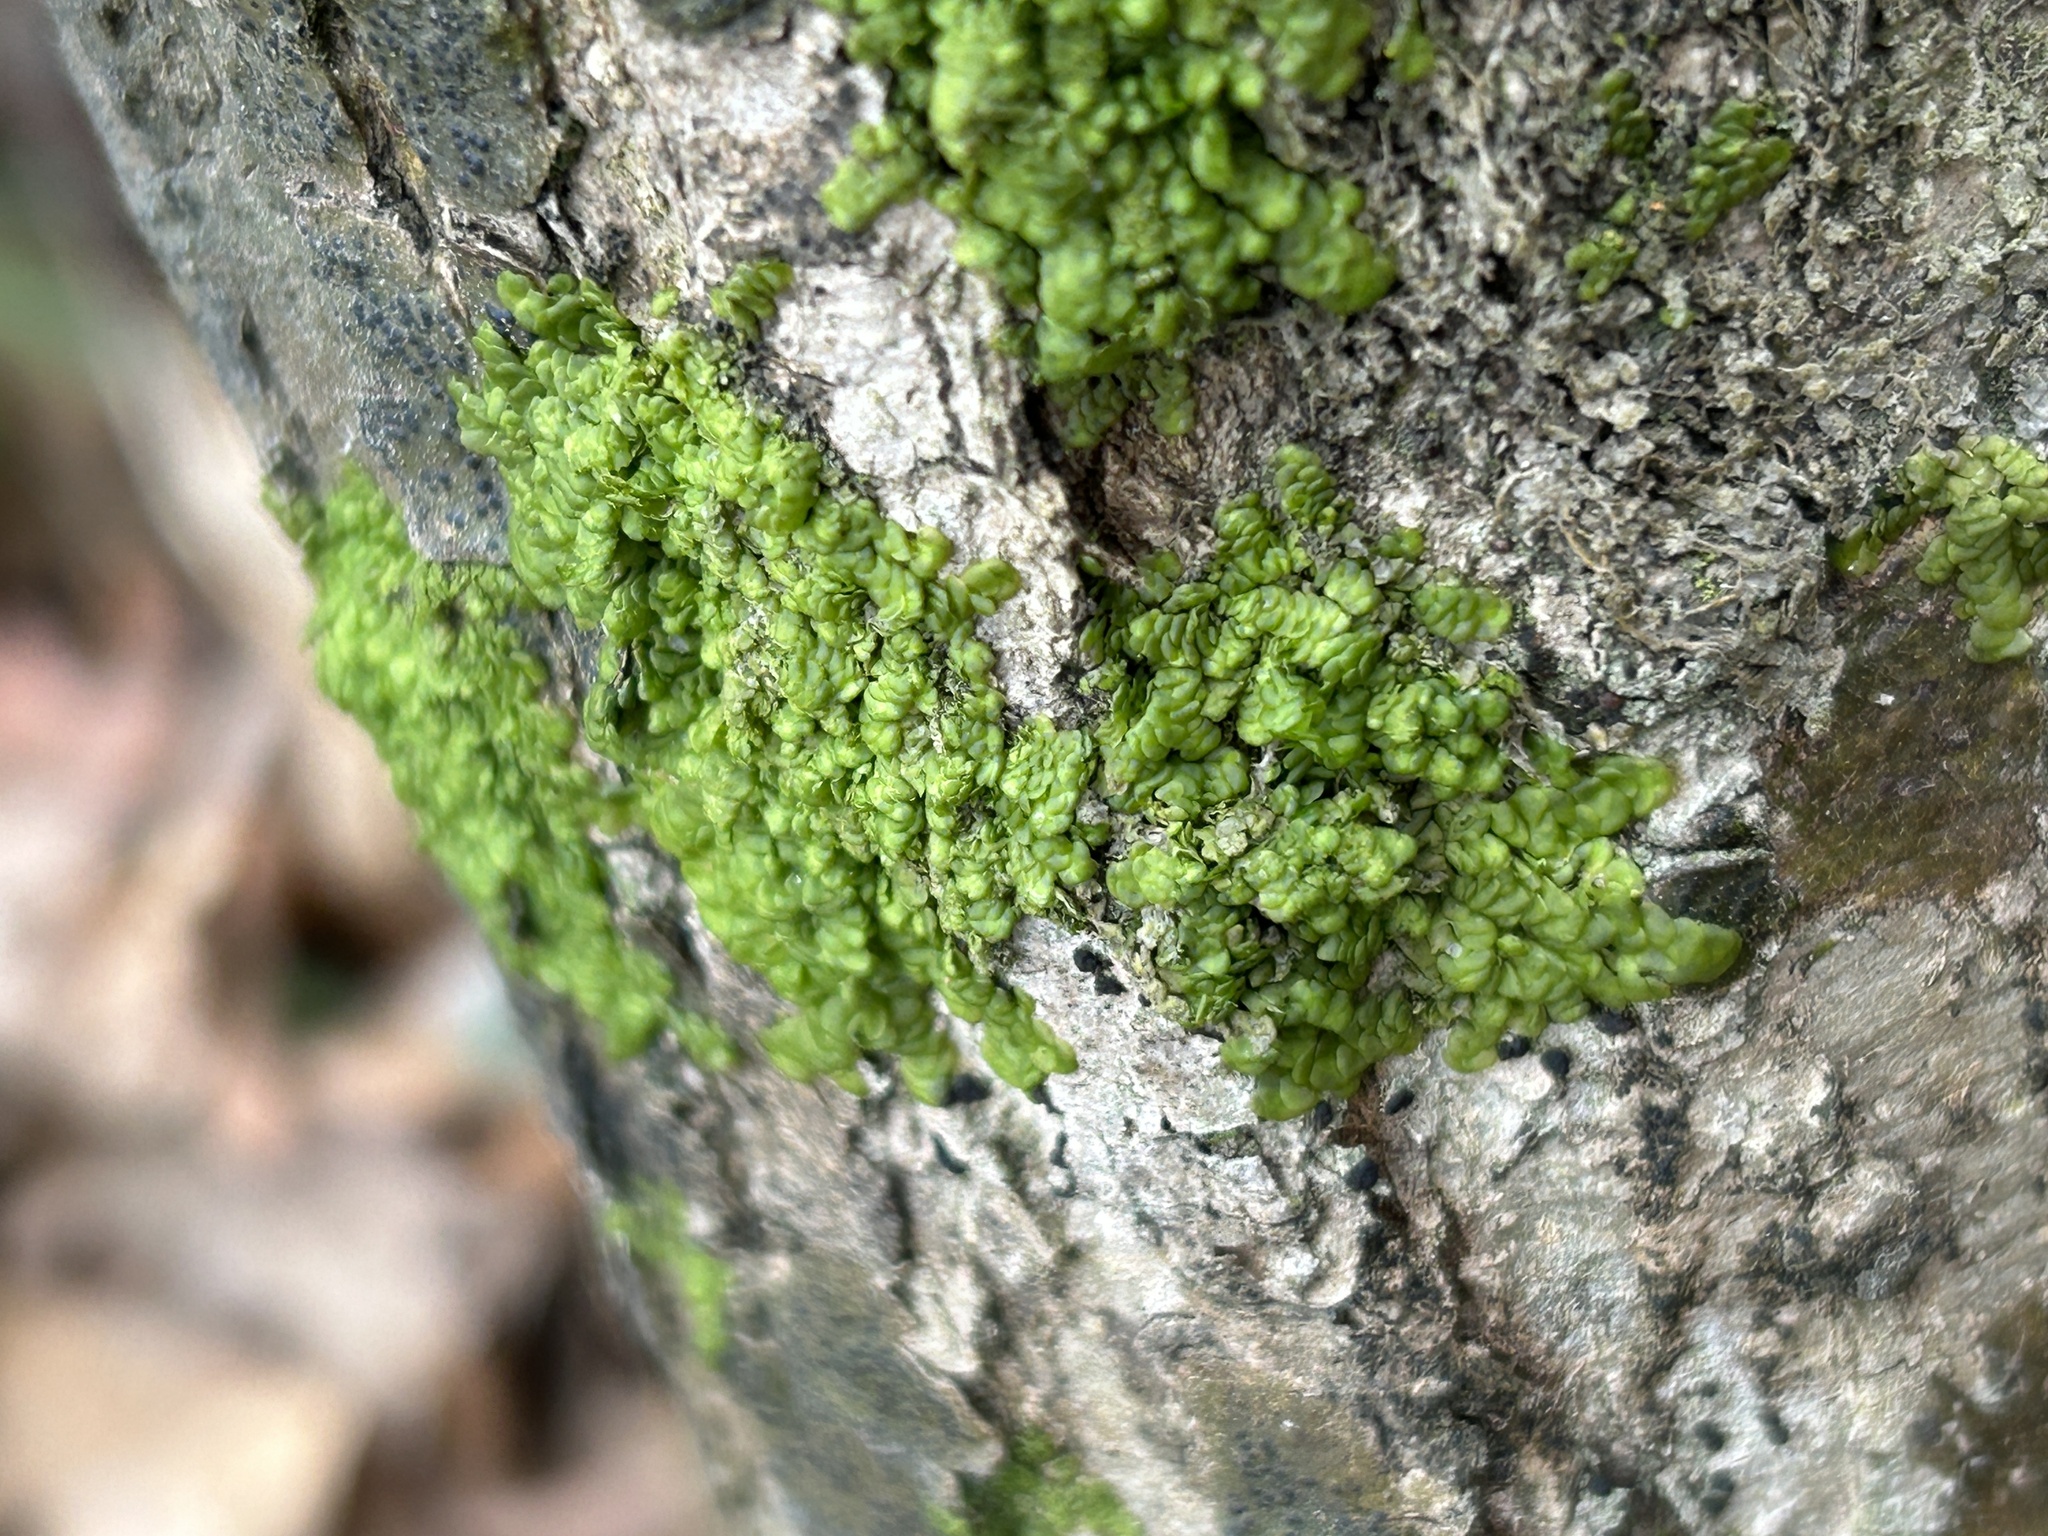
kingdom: Plantae
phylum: Marchantiophyta
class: Jungermanniopsida
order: Porellales
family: Radulaceae
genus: Radula
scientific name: Radula complanata
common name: Flat-leaved scalewort
